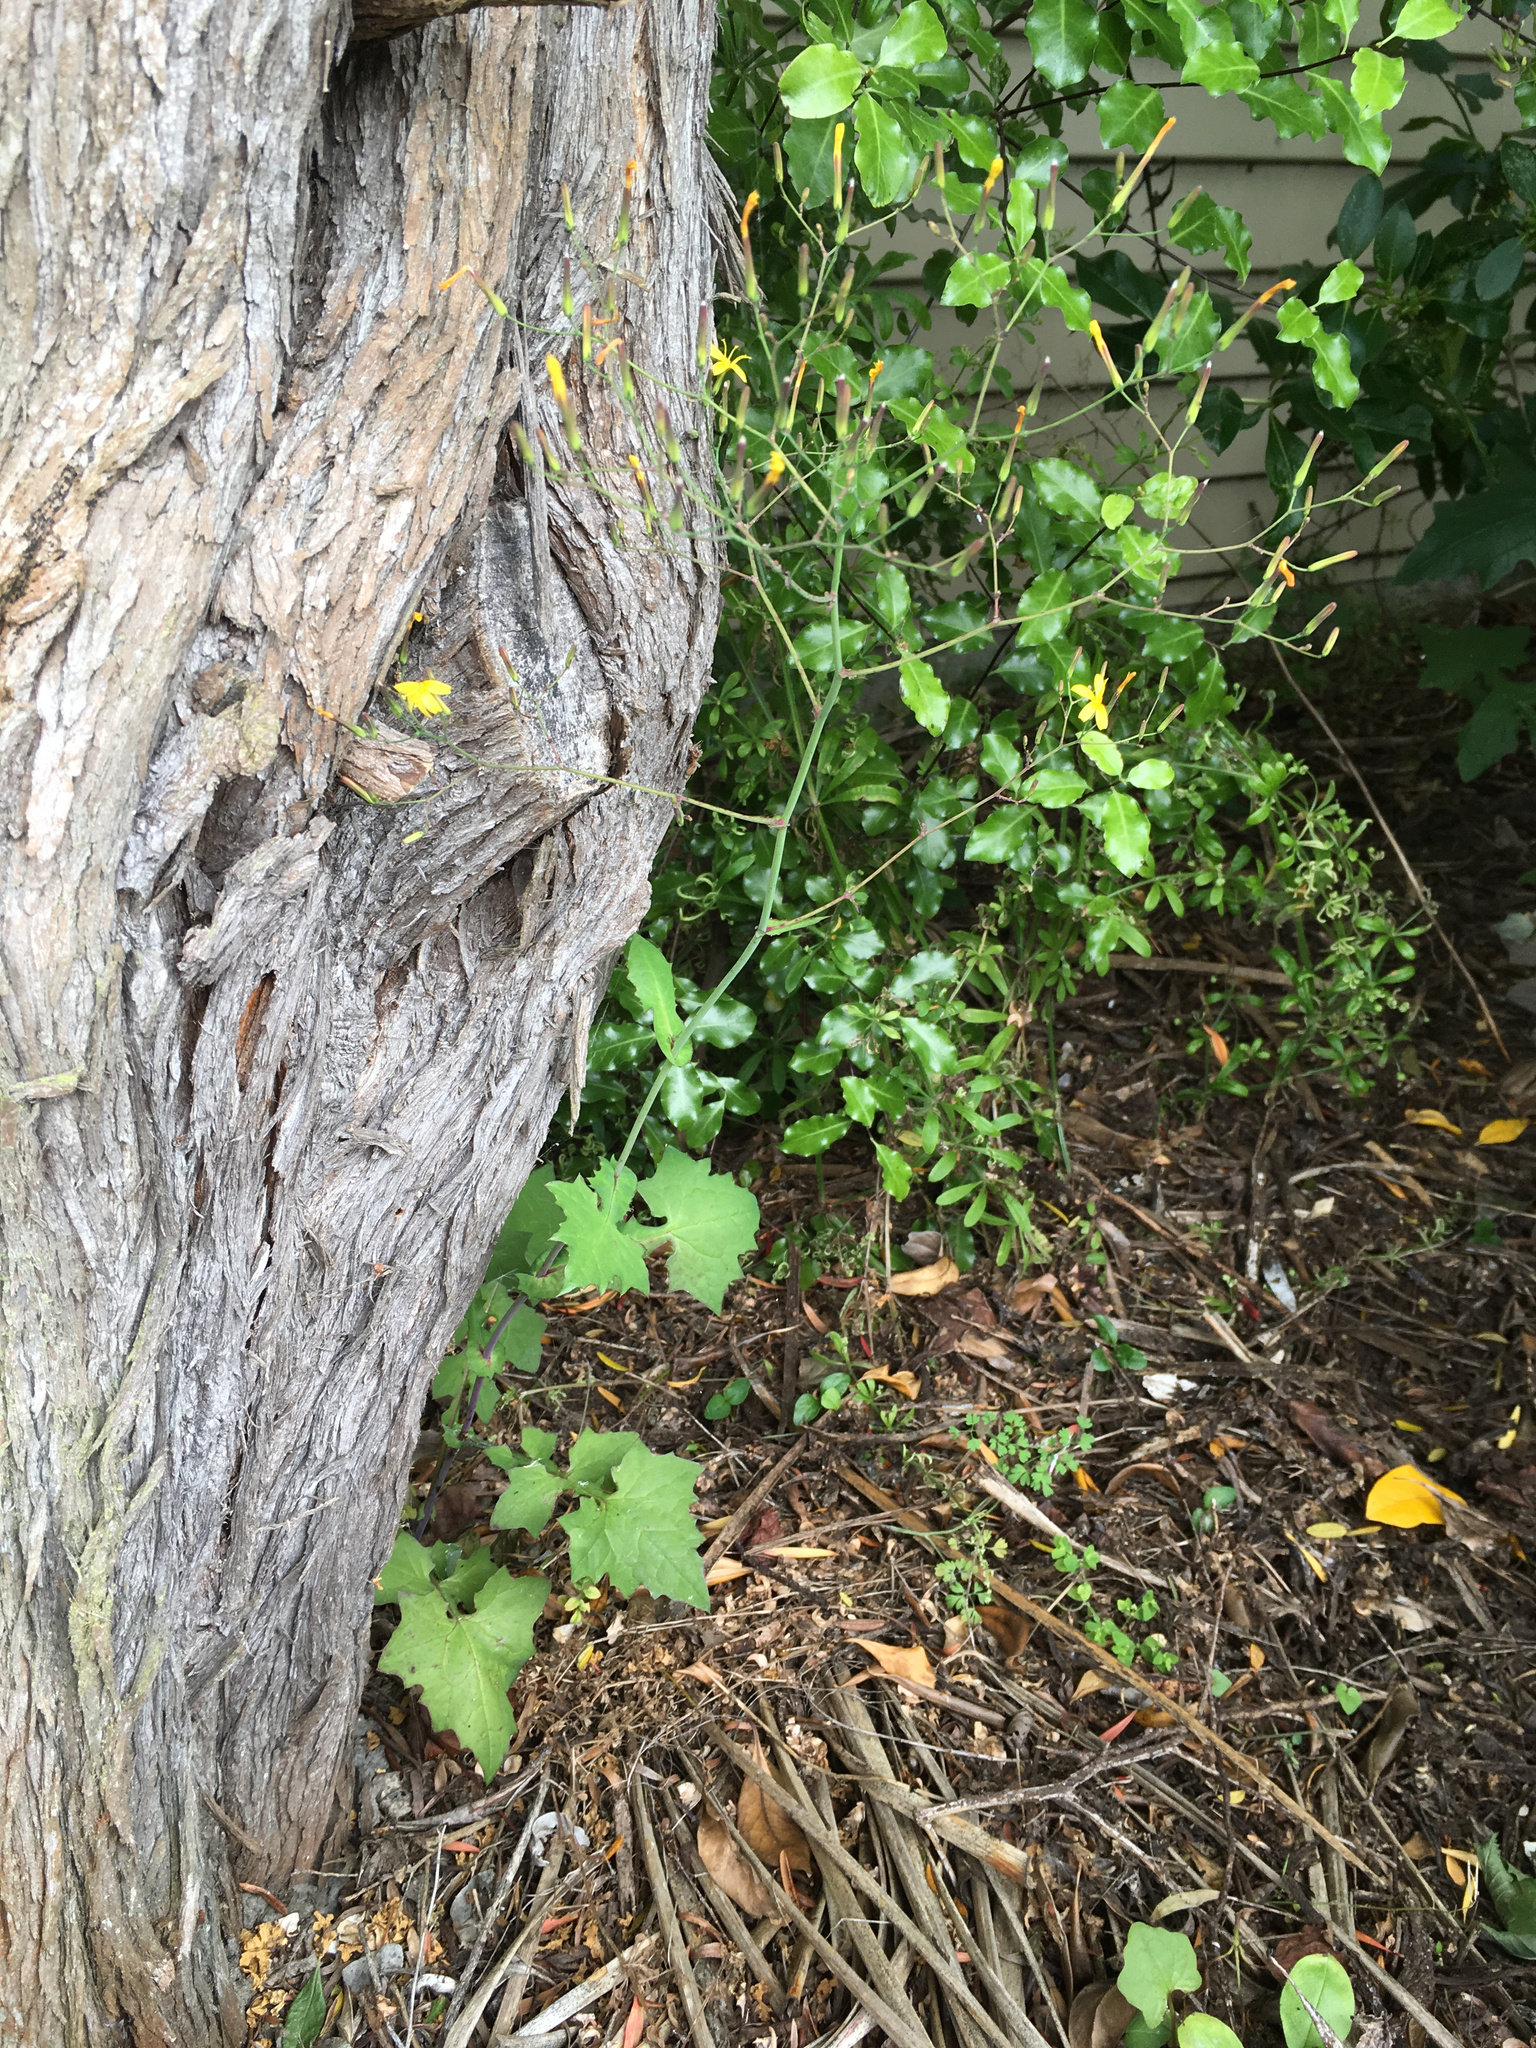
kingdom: Plantae
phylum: Tracheophyta
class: Magnoliopsida
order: Asterales
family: Asteraceae
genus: Mycelis
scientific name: Mycelis muralis
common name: Wall lettuce
